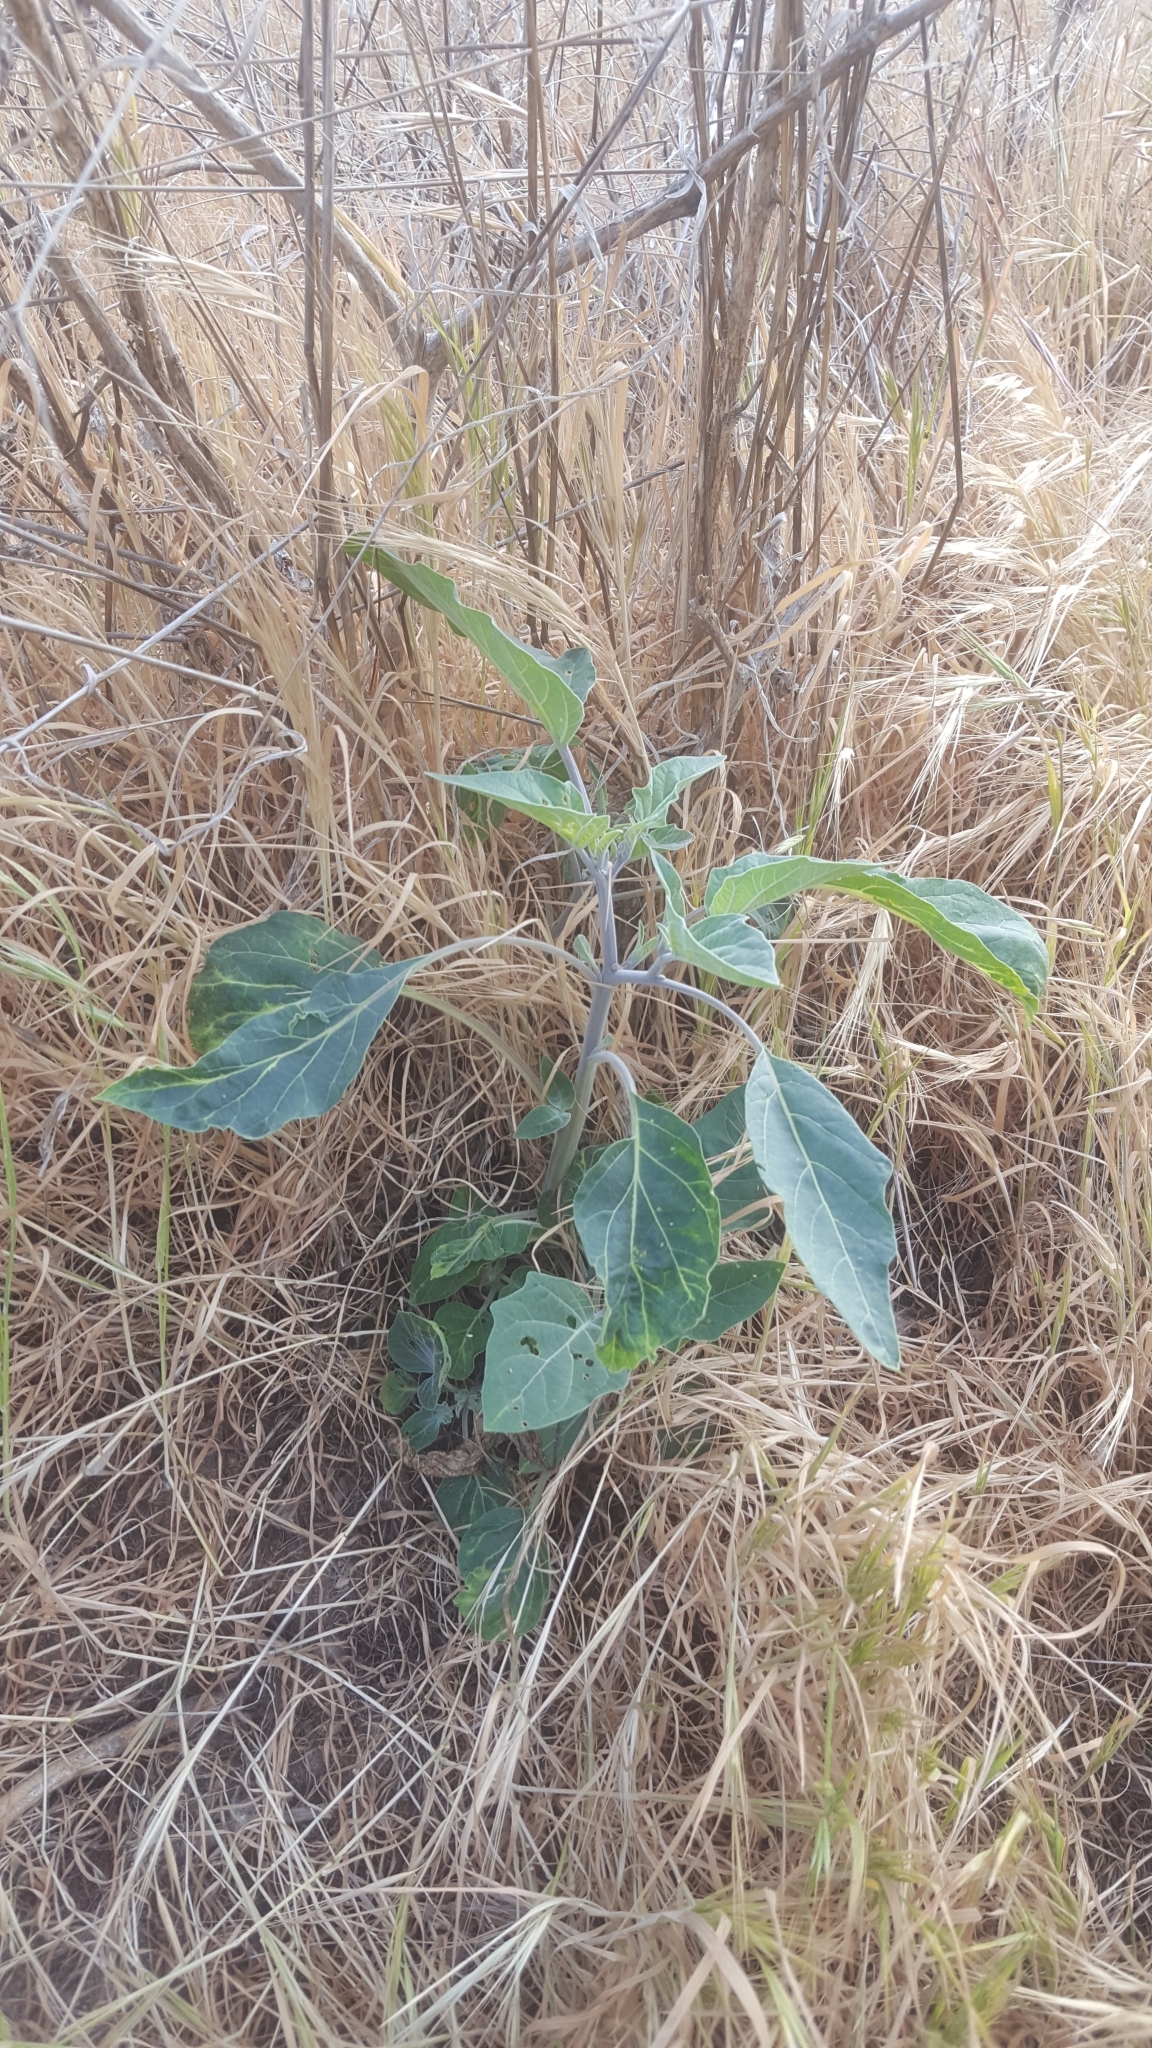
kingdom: Plantae
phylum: Tracheophyta
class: Magnoliopsida
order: Solanales
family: Solanaceae
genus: Datura
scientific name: Datura wrightii
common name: Sacred thorn-apple
